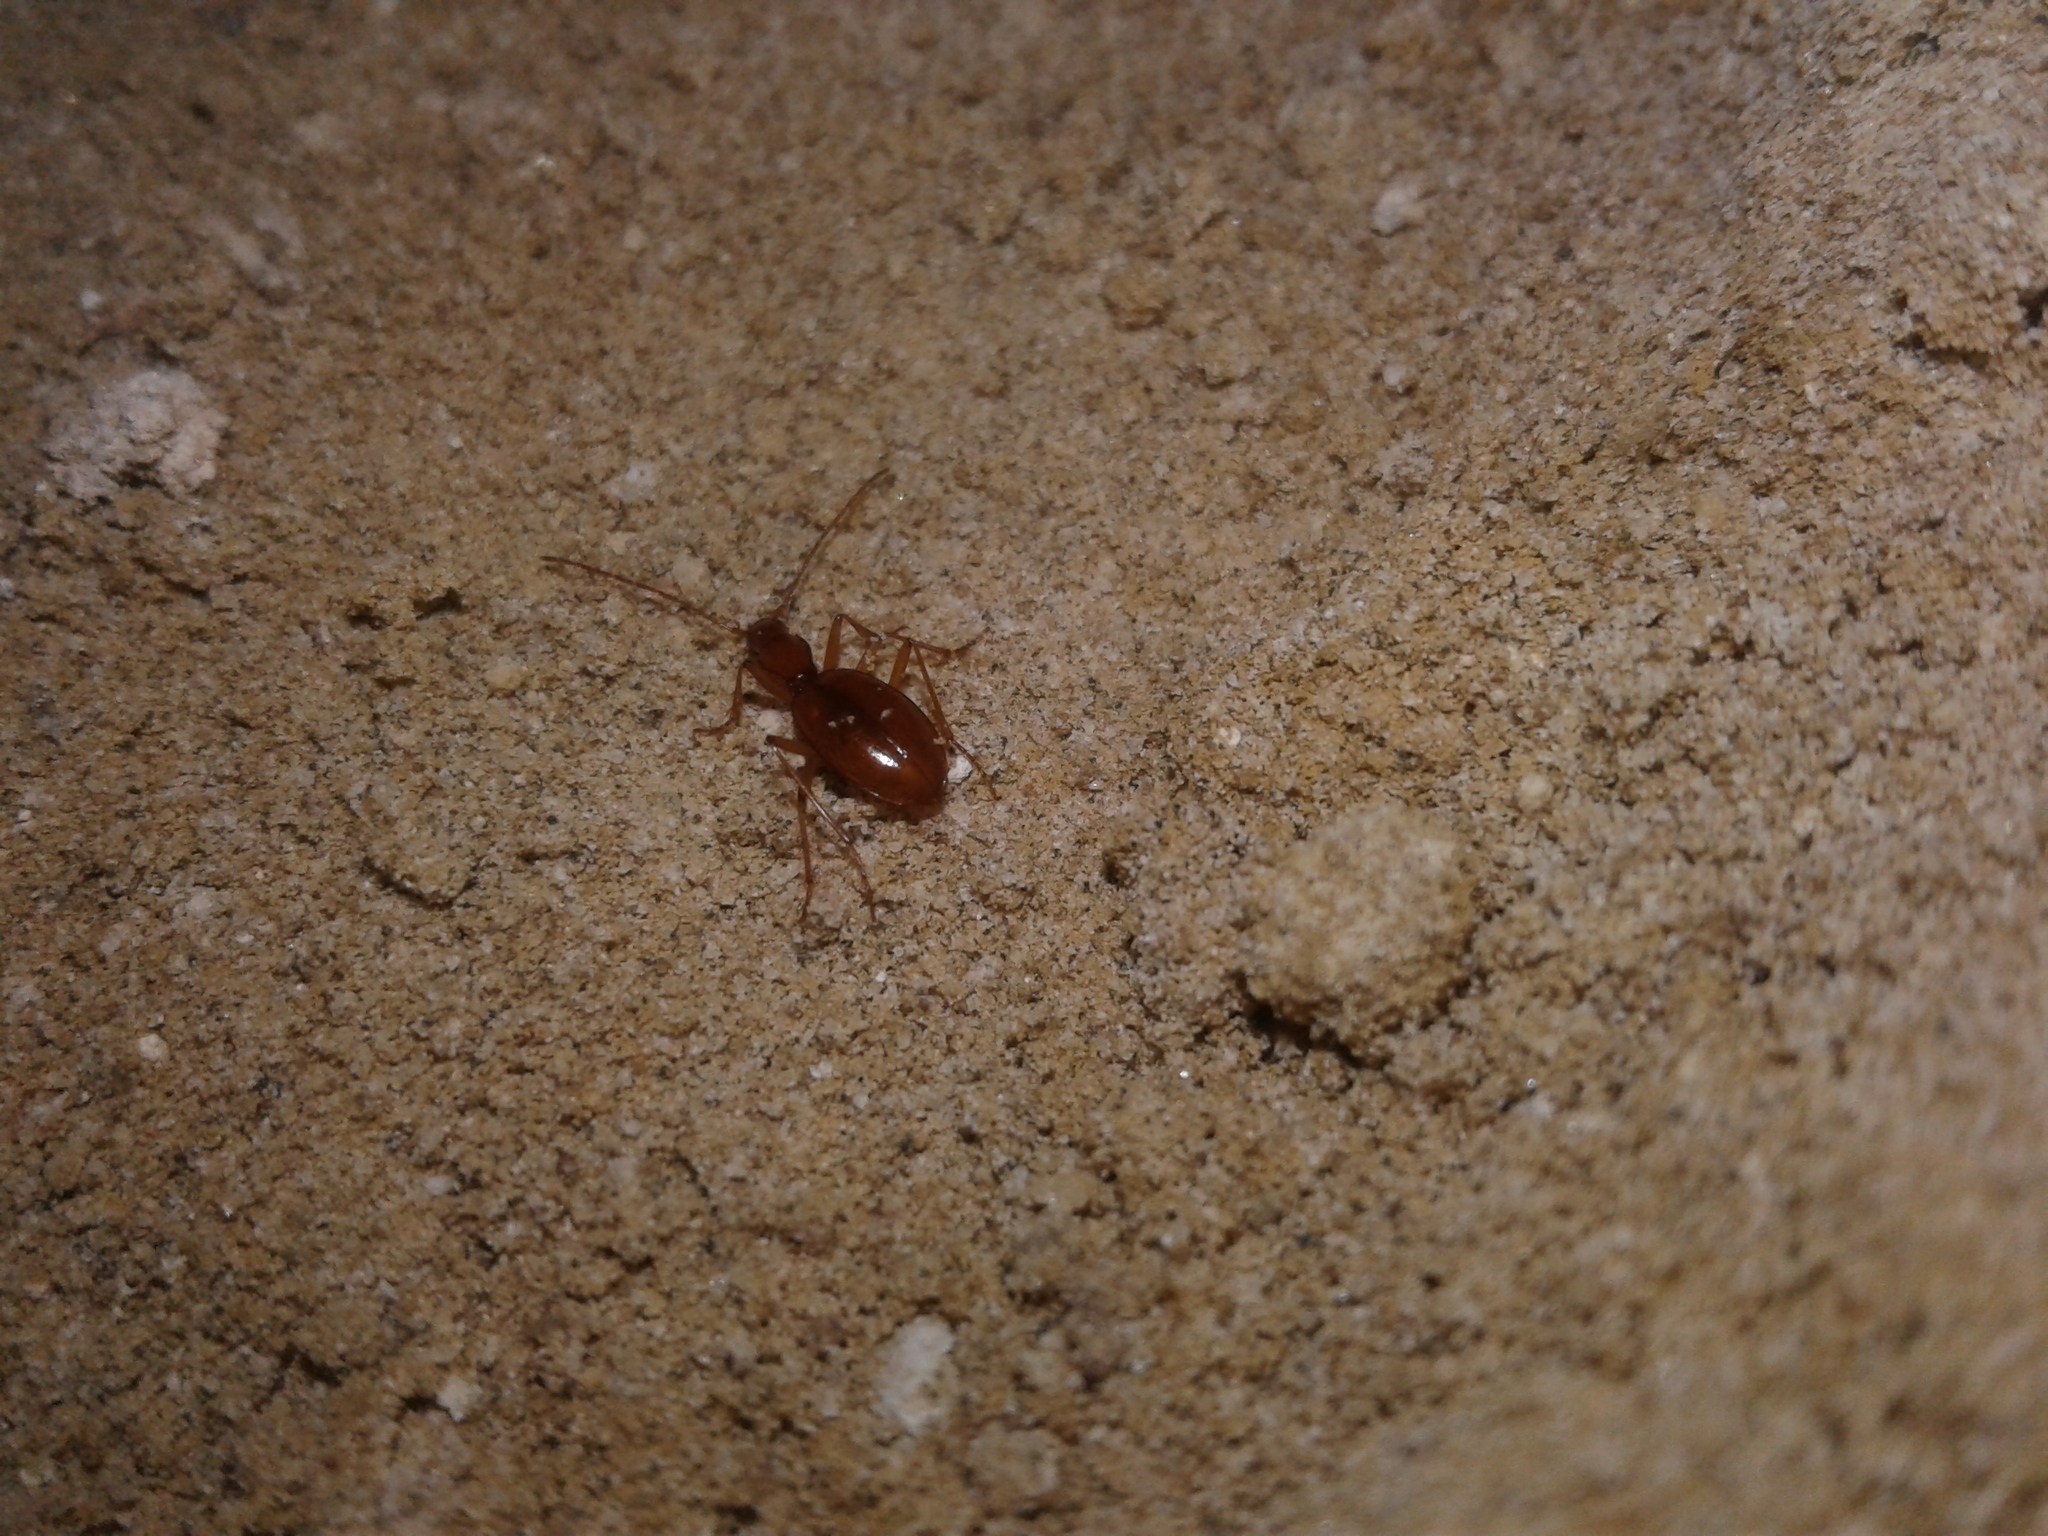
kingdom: Animalia
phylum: Arthropoda
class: Insecta
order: Coleoptera
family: Carabidae
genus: Pholeodytes
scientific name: Pholeodytes townsendi
